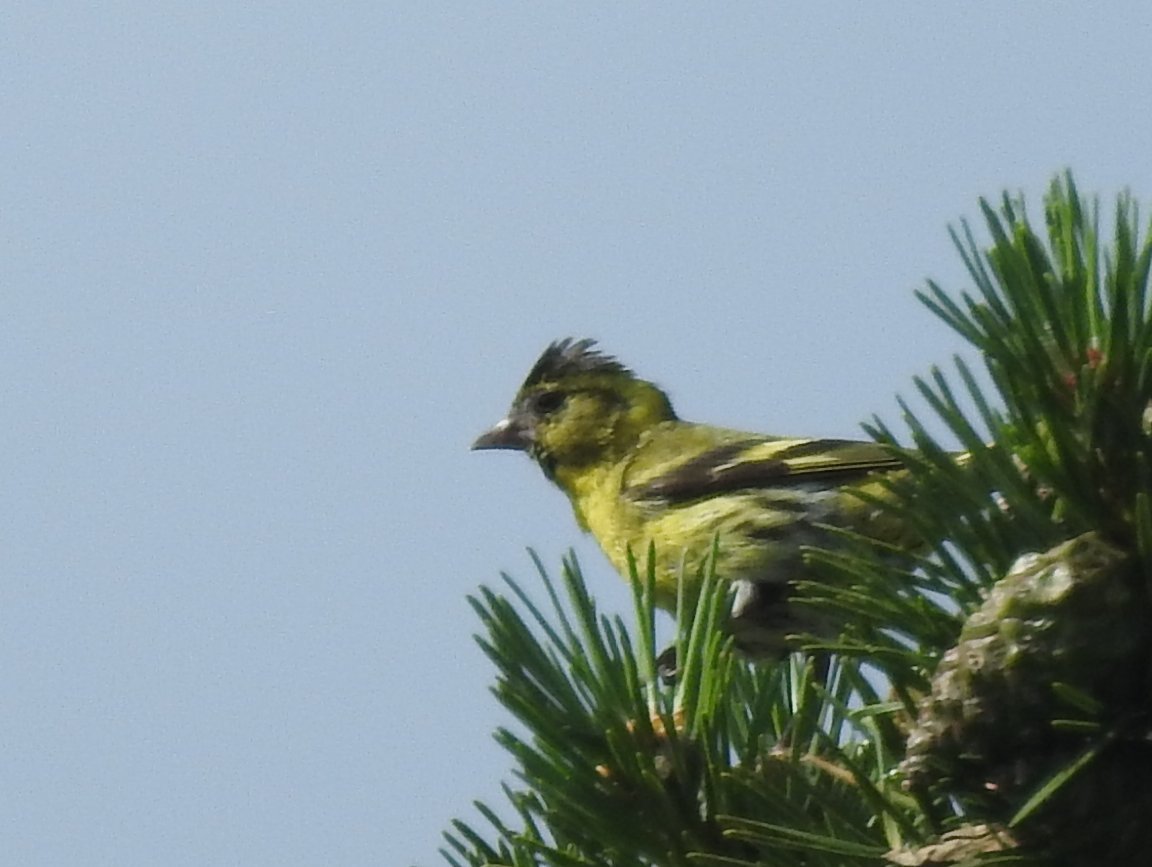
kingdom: Animalia
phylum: Chordata
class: Aves
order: Passeriformes
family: Fringillidae
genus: Spinus
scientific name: Spinus spinus
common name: Eurasian siskin
